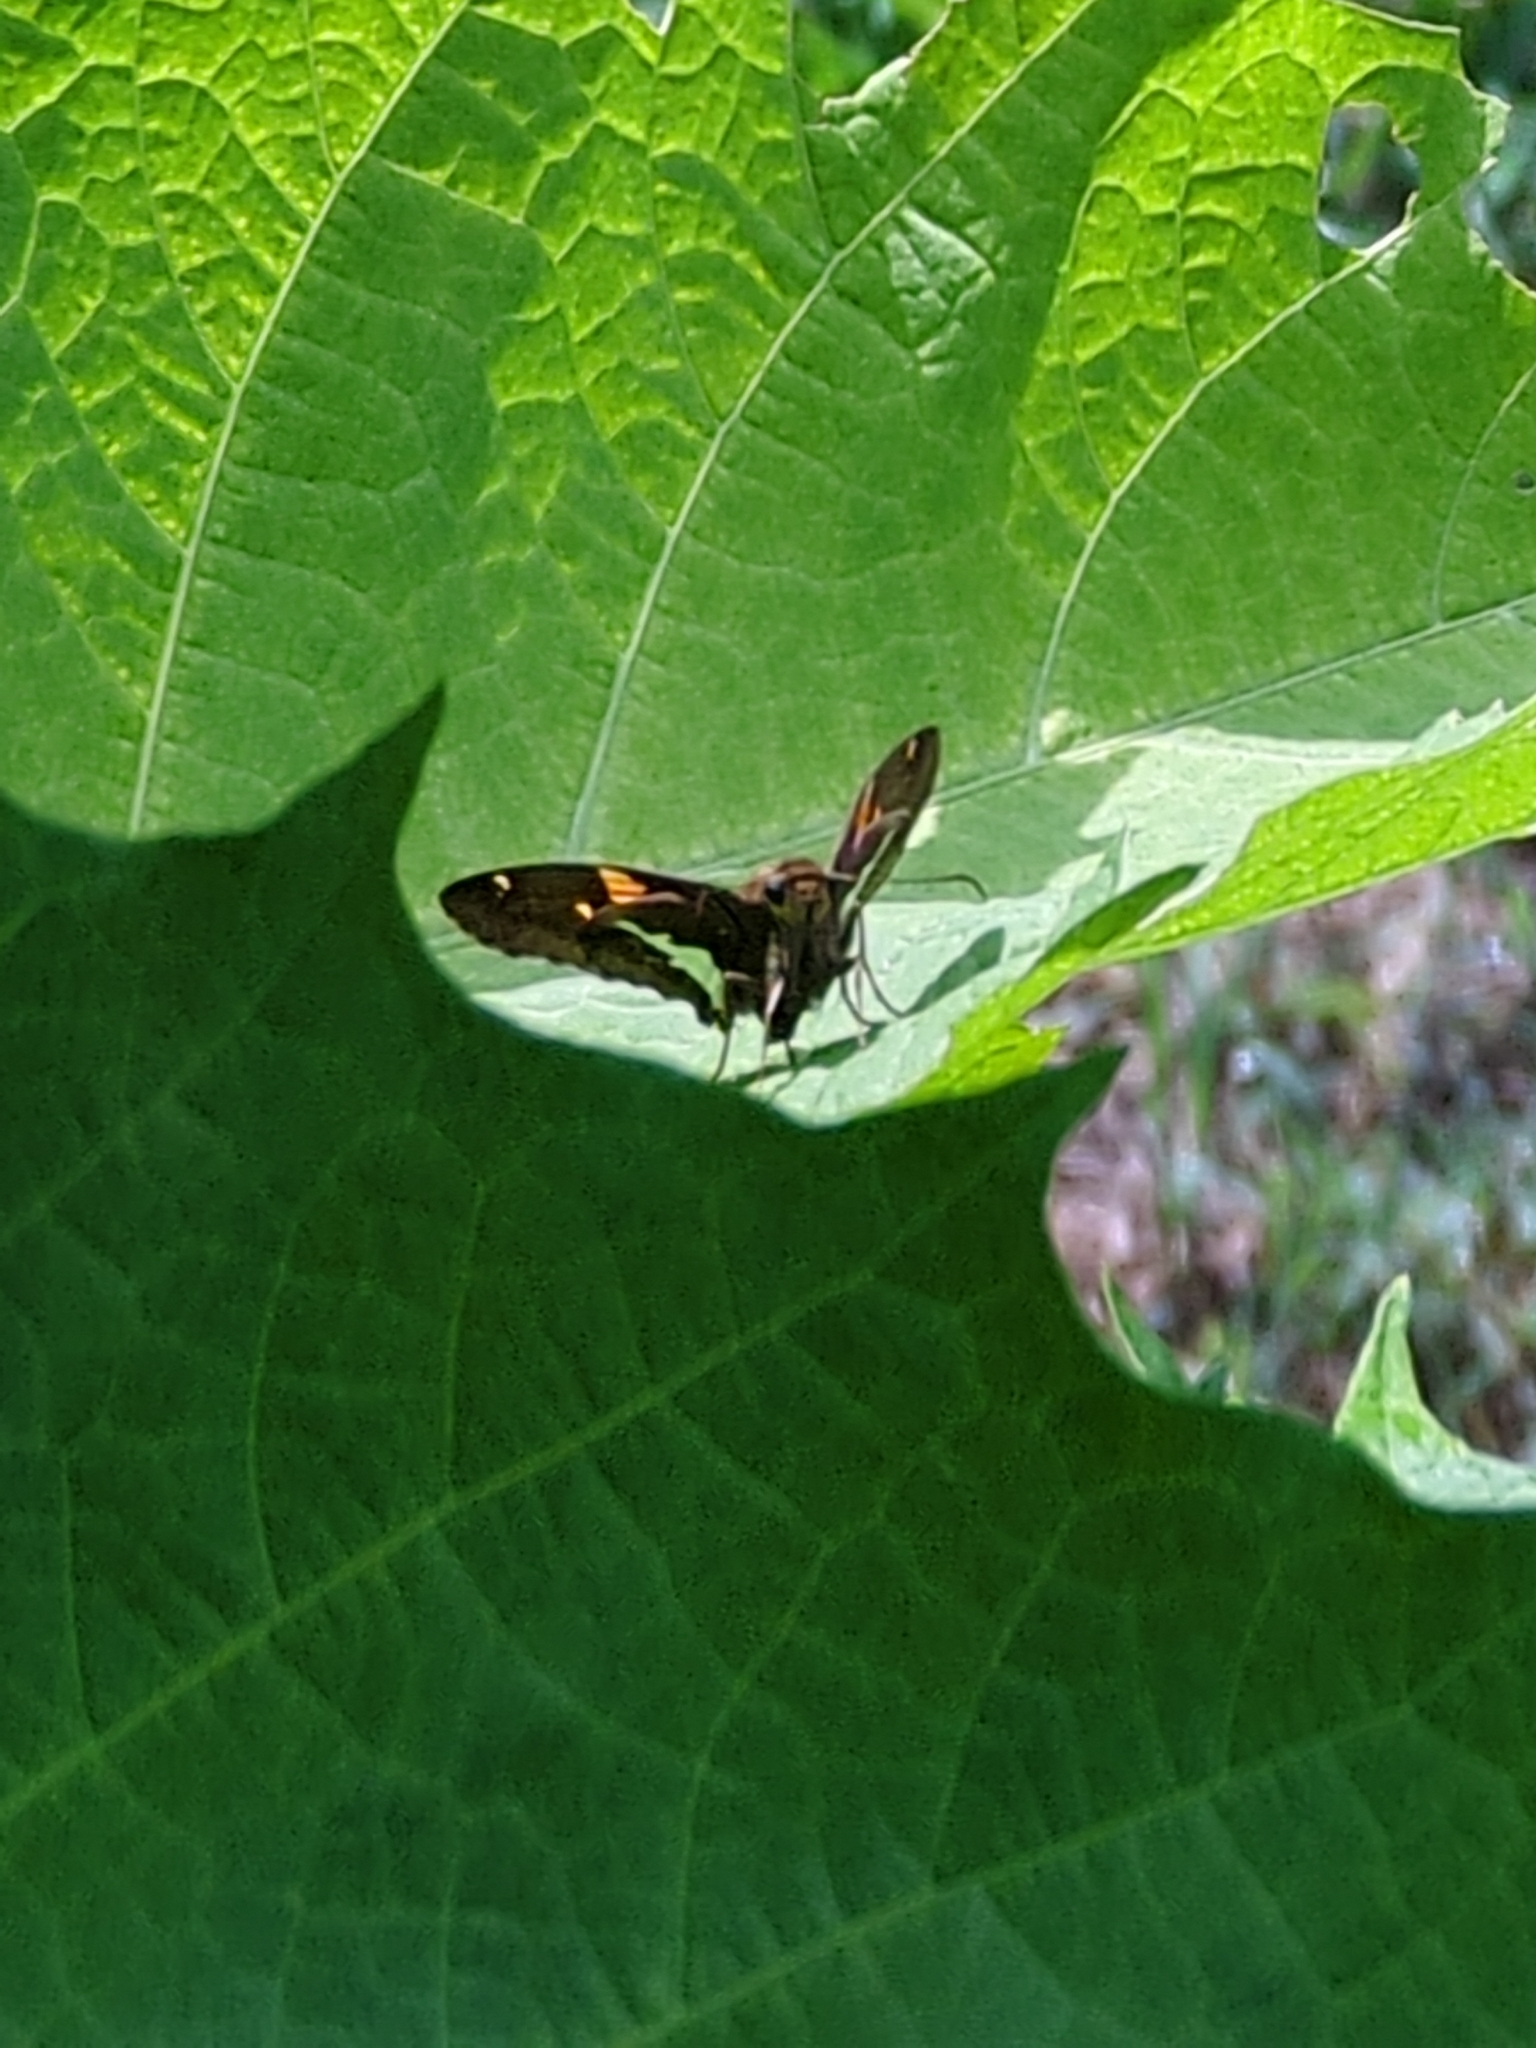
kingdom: Animalia
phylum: Arthropoda
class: Insecta
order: Lepidoptera
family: Hesperiidae
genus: Epargyreus
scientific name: Epargyreus clarus
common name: Silver-spotted skipper
